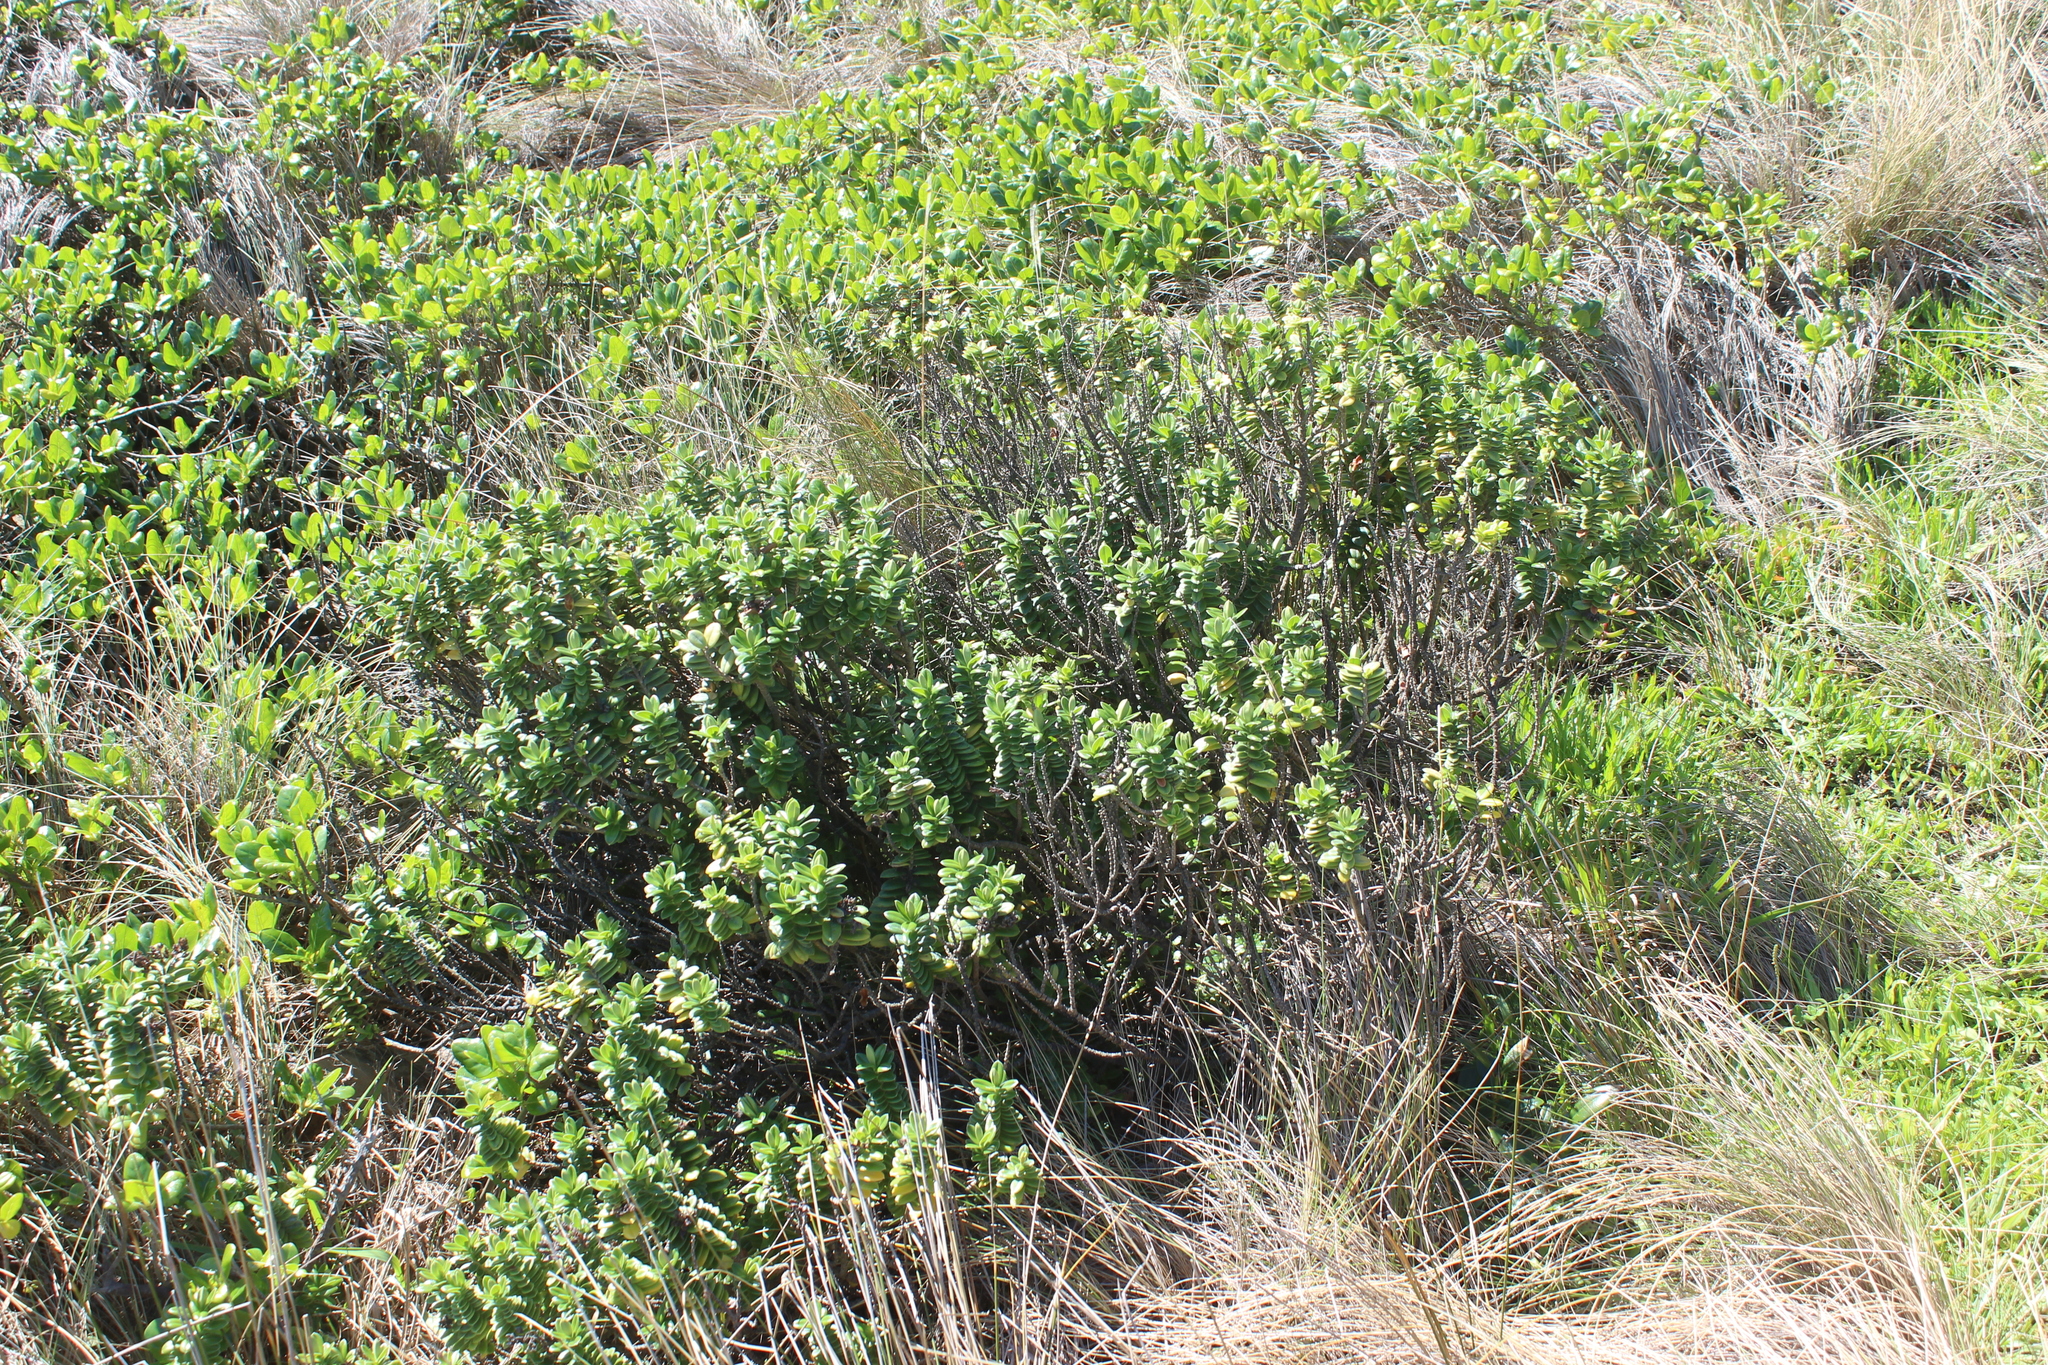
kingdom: Plantae
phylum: Tracheophyta
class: Magnoliopsida
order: Lamiales
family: Plantaginaceae
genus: Veronica
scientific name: Veronica elliptica
